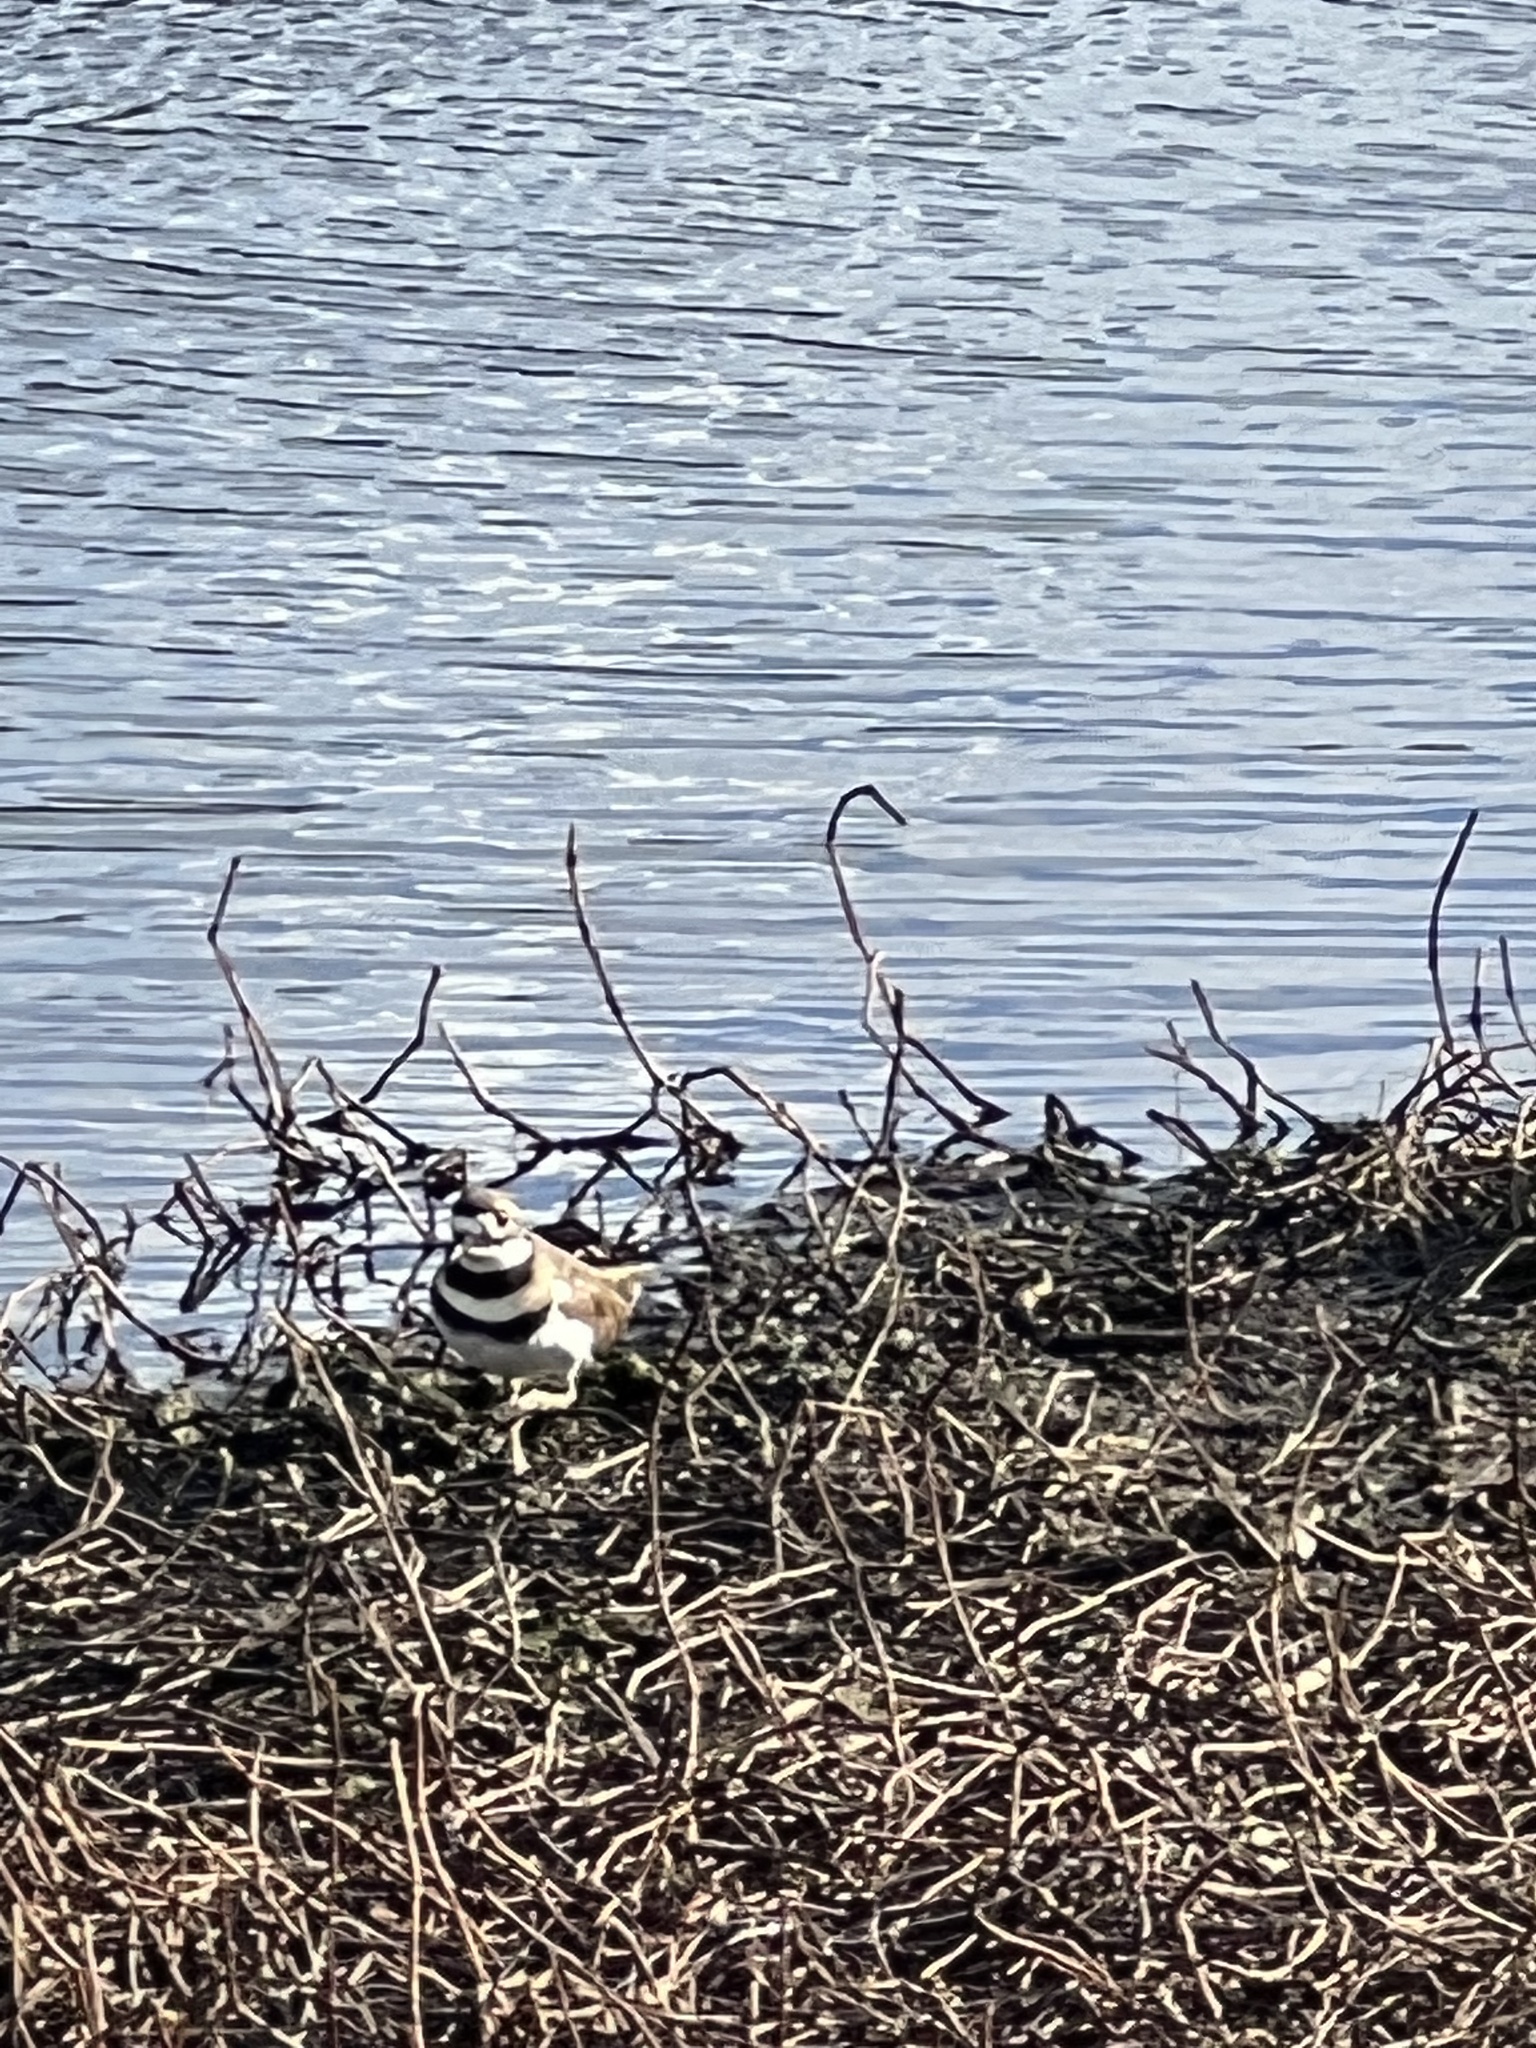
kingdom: Animalia
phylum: Chordata
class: Aves
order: Charadriiformes
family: Charadriidae
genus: Charadrius
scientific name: Charadrius vociferus
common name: Killdeer
